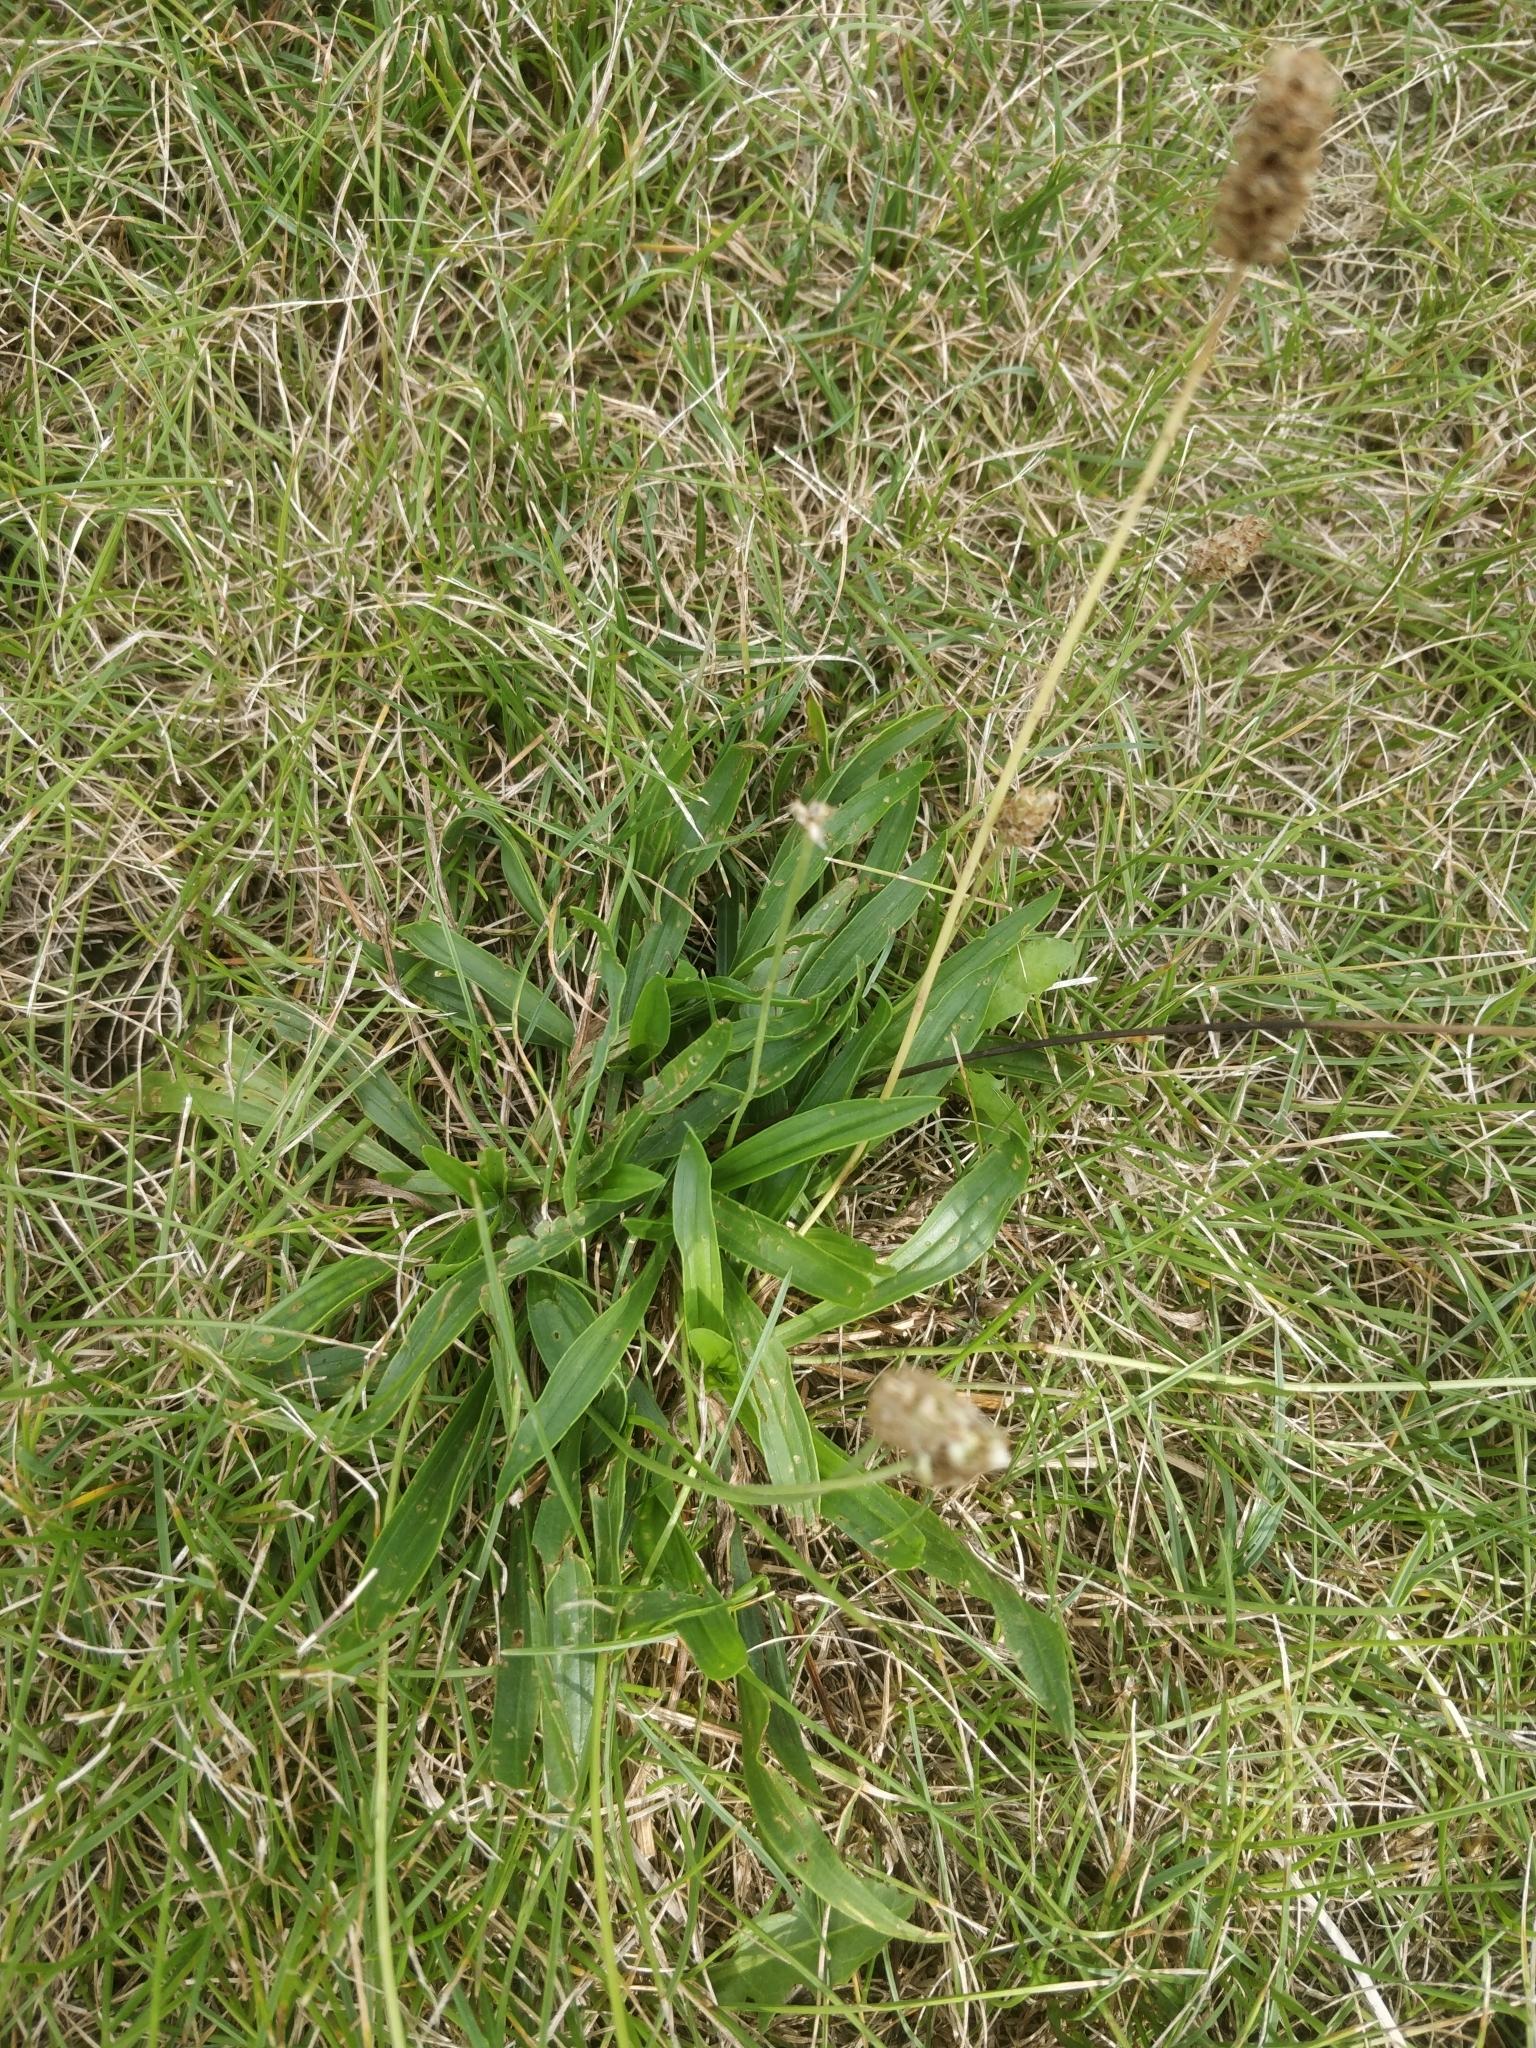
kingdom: Plantae
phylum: Tracheophyta
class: Magnoliopsida
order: Lamiales
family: Plantaginaceae
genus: Plantago
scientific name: Plantago lanceolata
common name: Ribwort plantain
